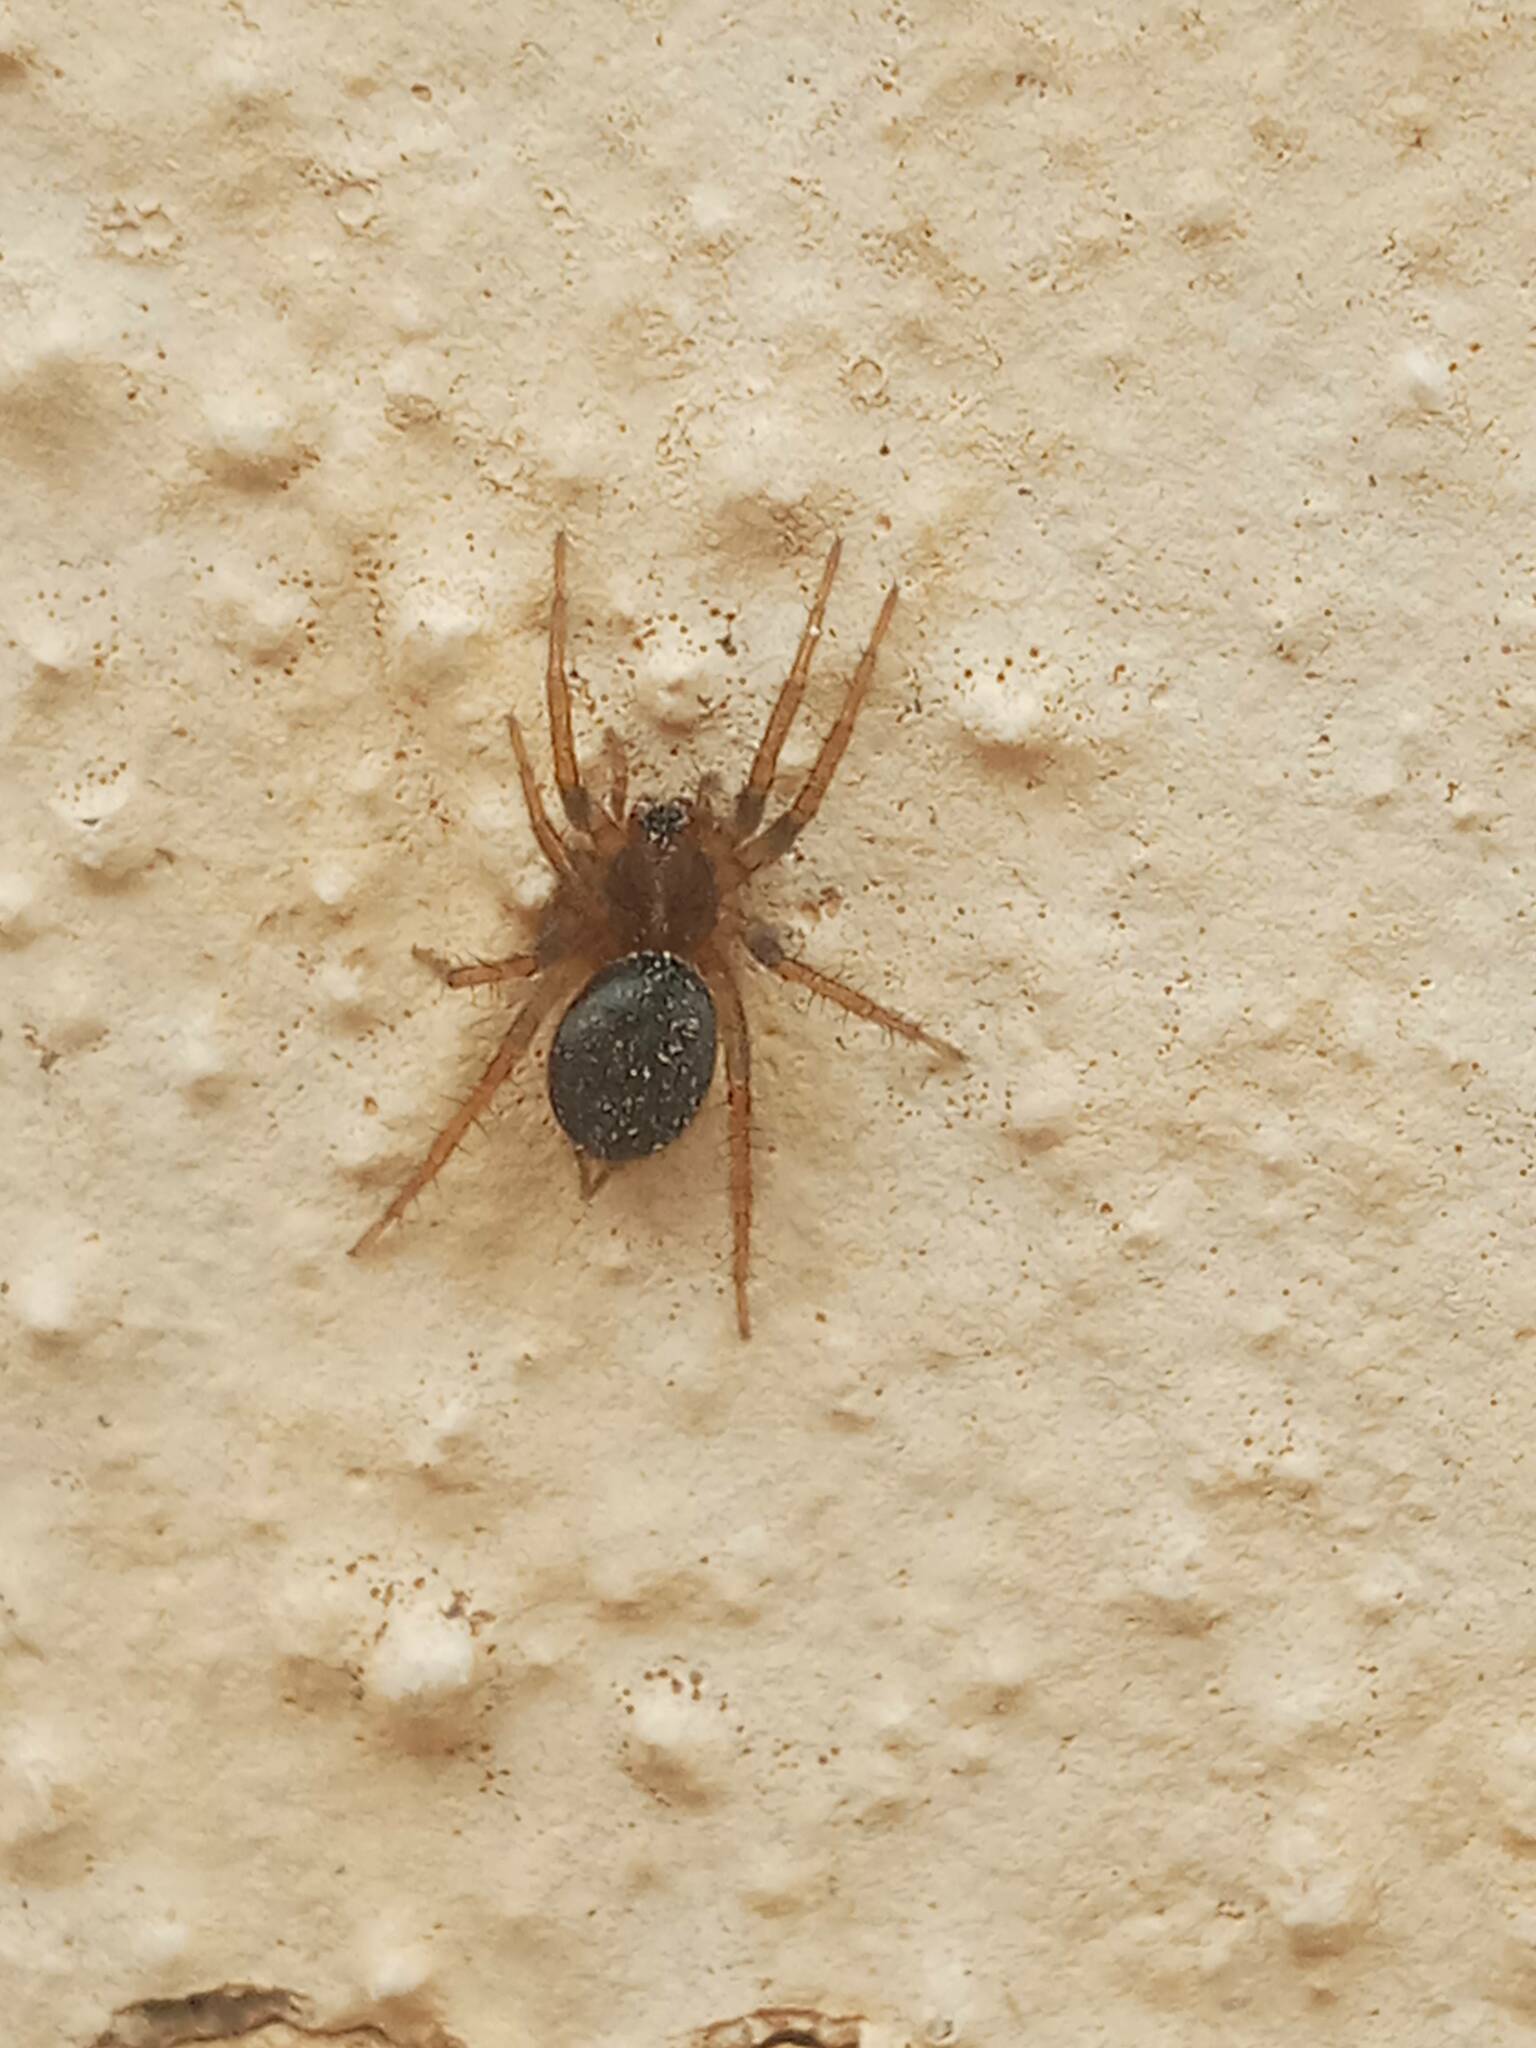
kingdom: Animalia
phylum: Arthropoda
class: Arachnida
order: Araneae
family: Agelenidae
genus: Lycosoides
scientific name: Lycosoides coarctata
